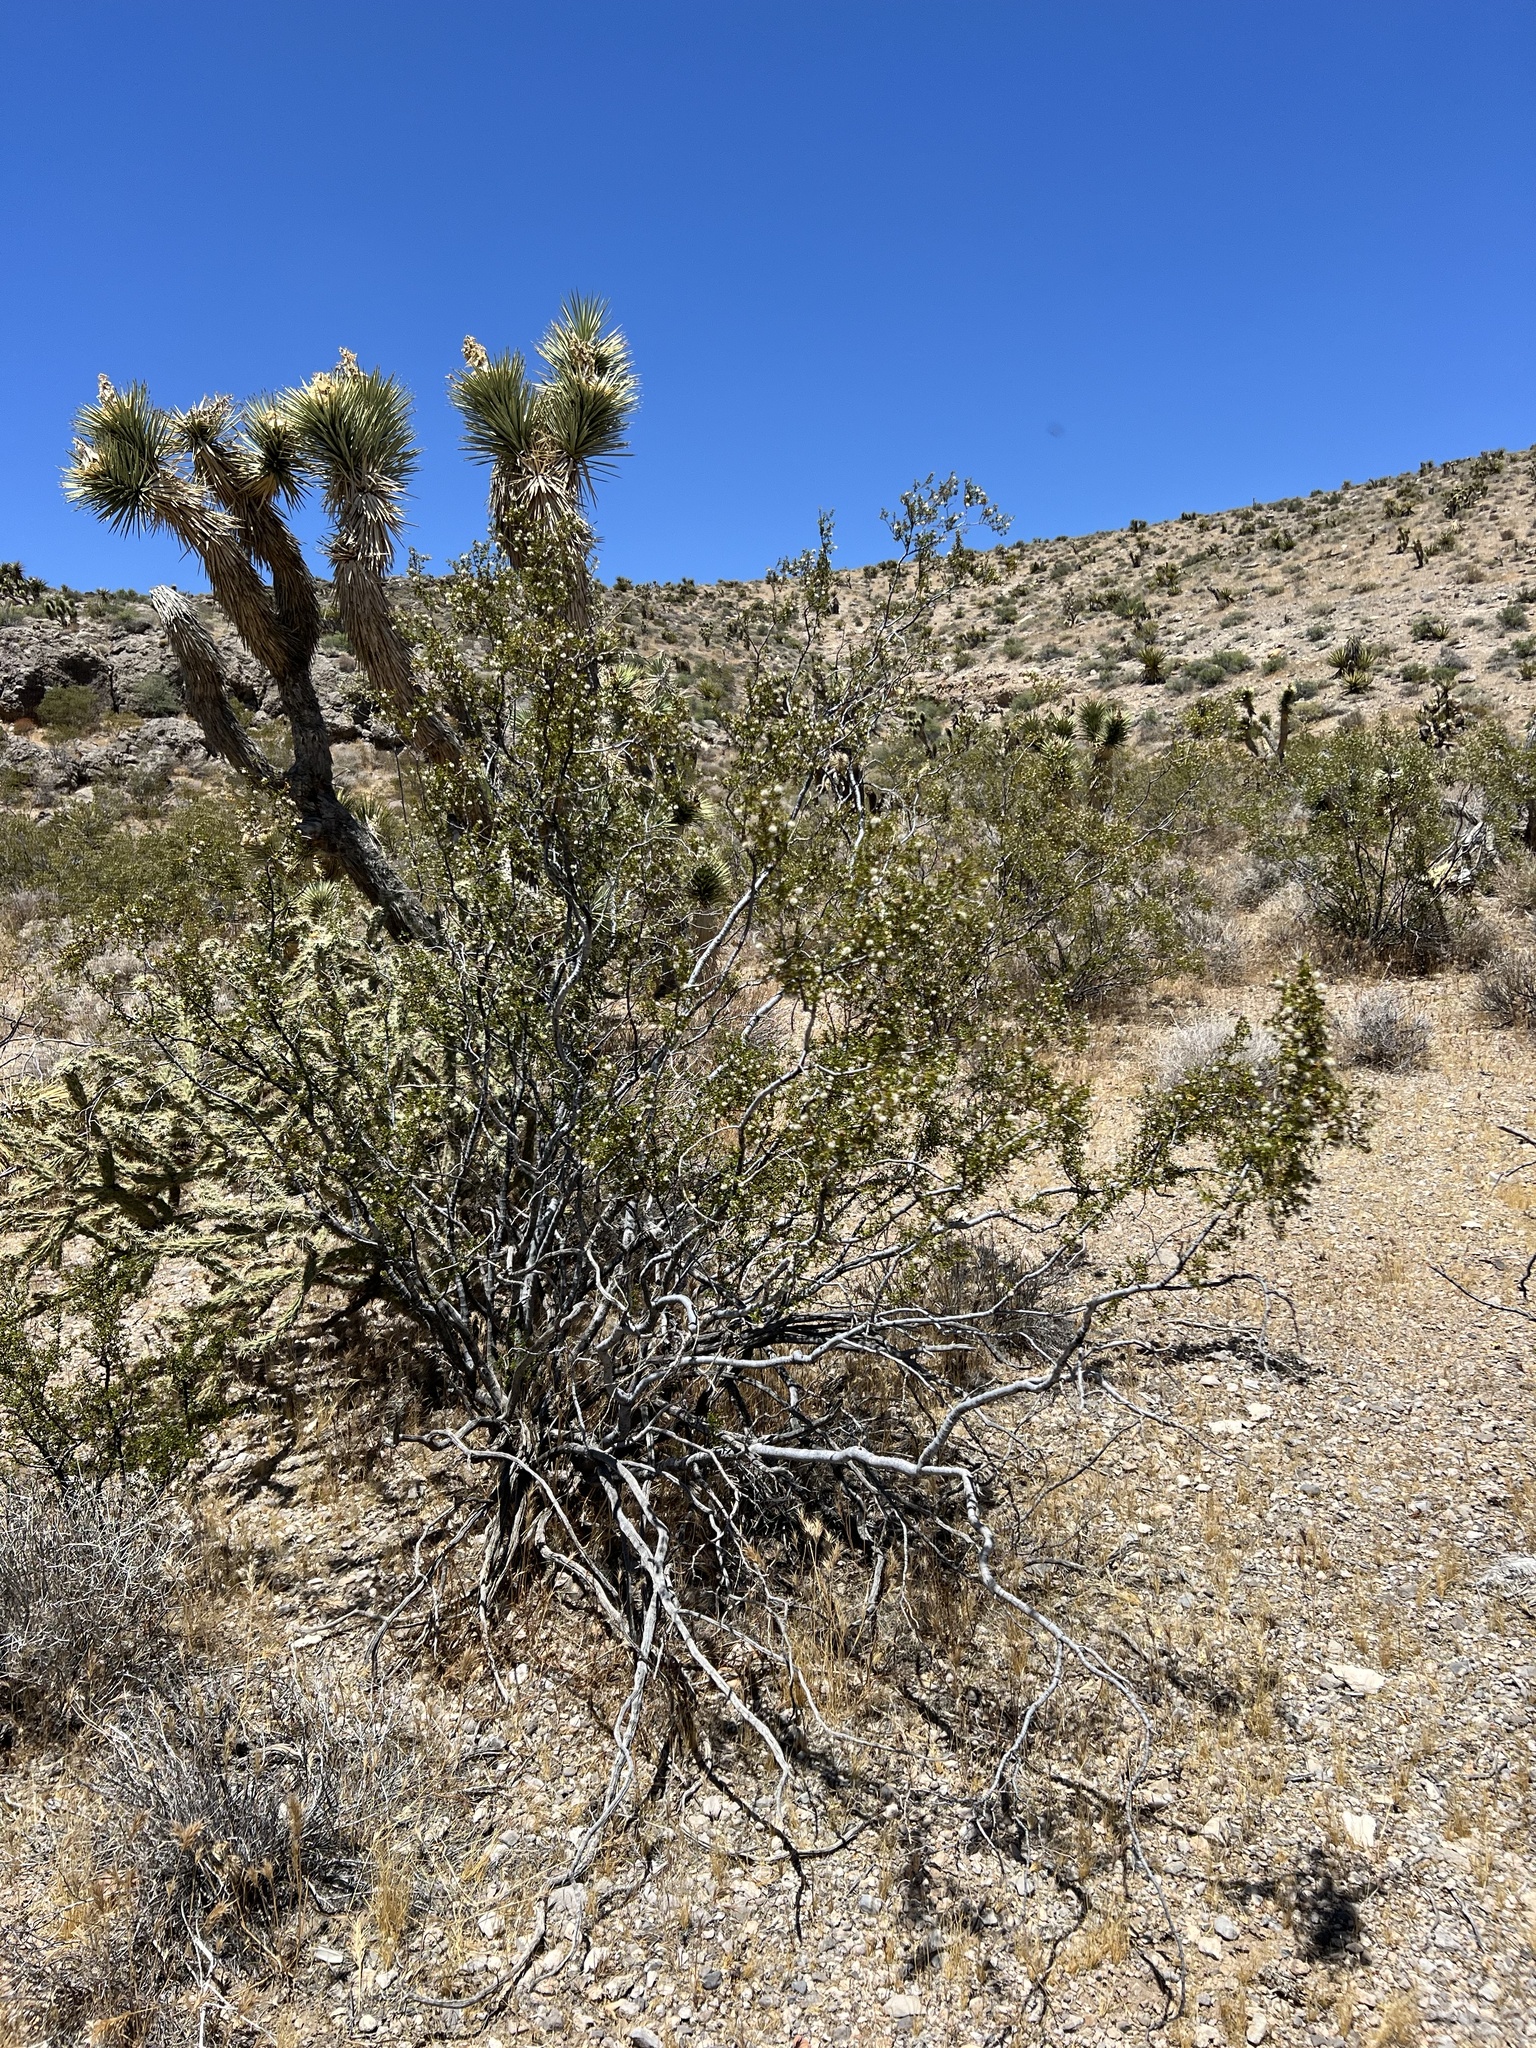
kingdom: Plantae
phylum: Tracheophyta
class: Magnoliopsida
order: Zygophyllales
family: Zygophyllaceae
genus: Larrea
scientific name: Larrea tridentata
